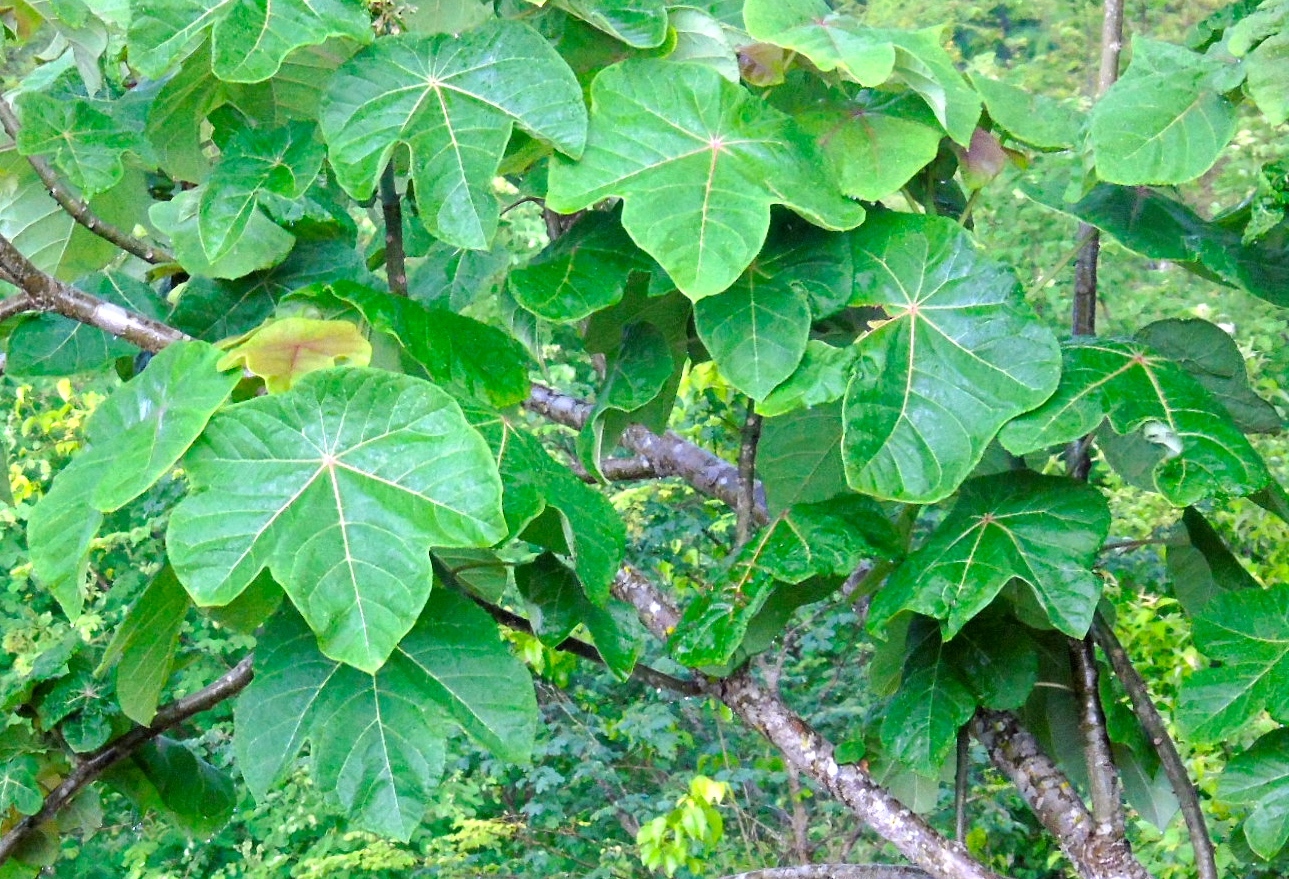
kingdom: Plantae
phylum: Tracheophyta
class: Magnoliopsida
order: Malpighiales
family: Euphorbiaceae
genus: Jatropha
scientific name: Jatropha peltata
